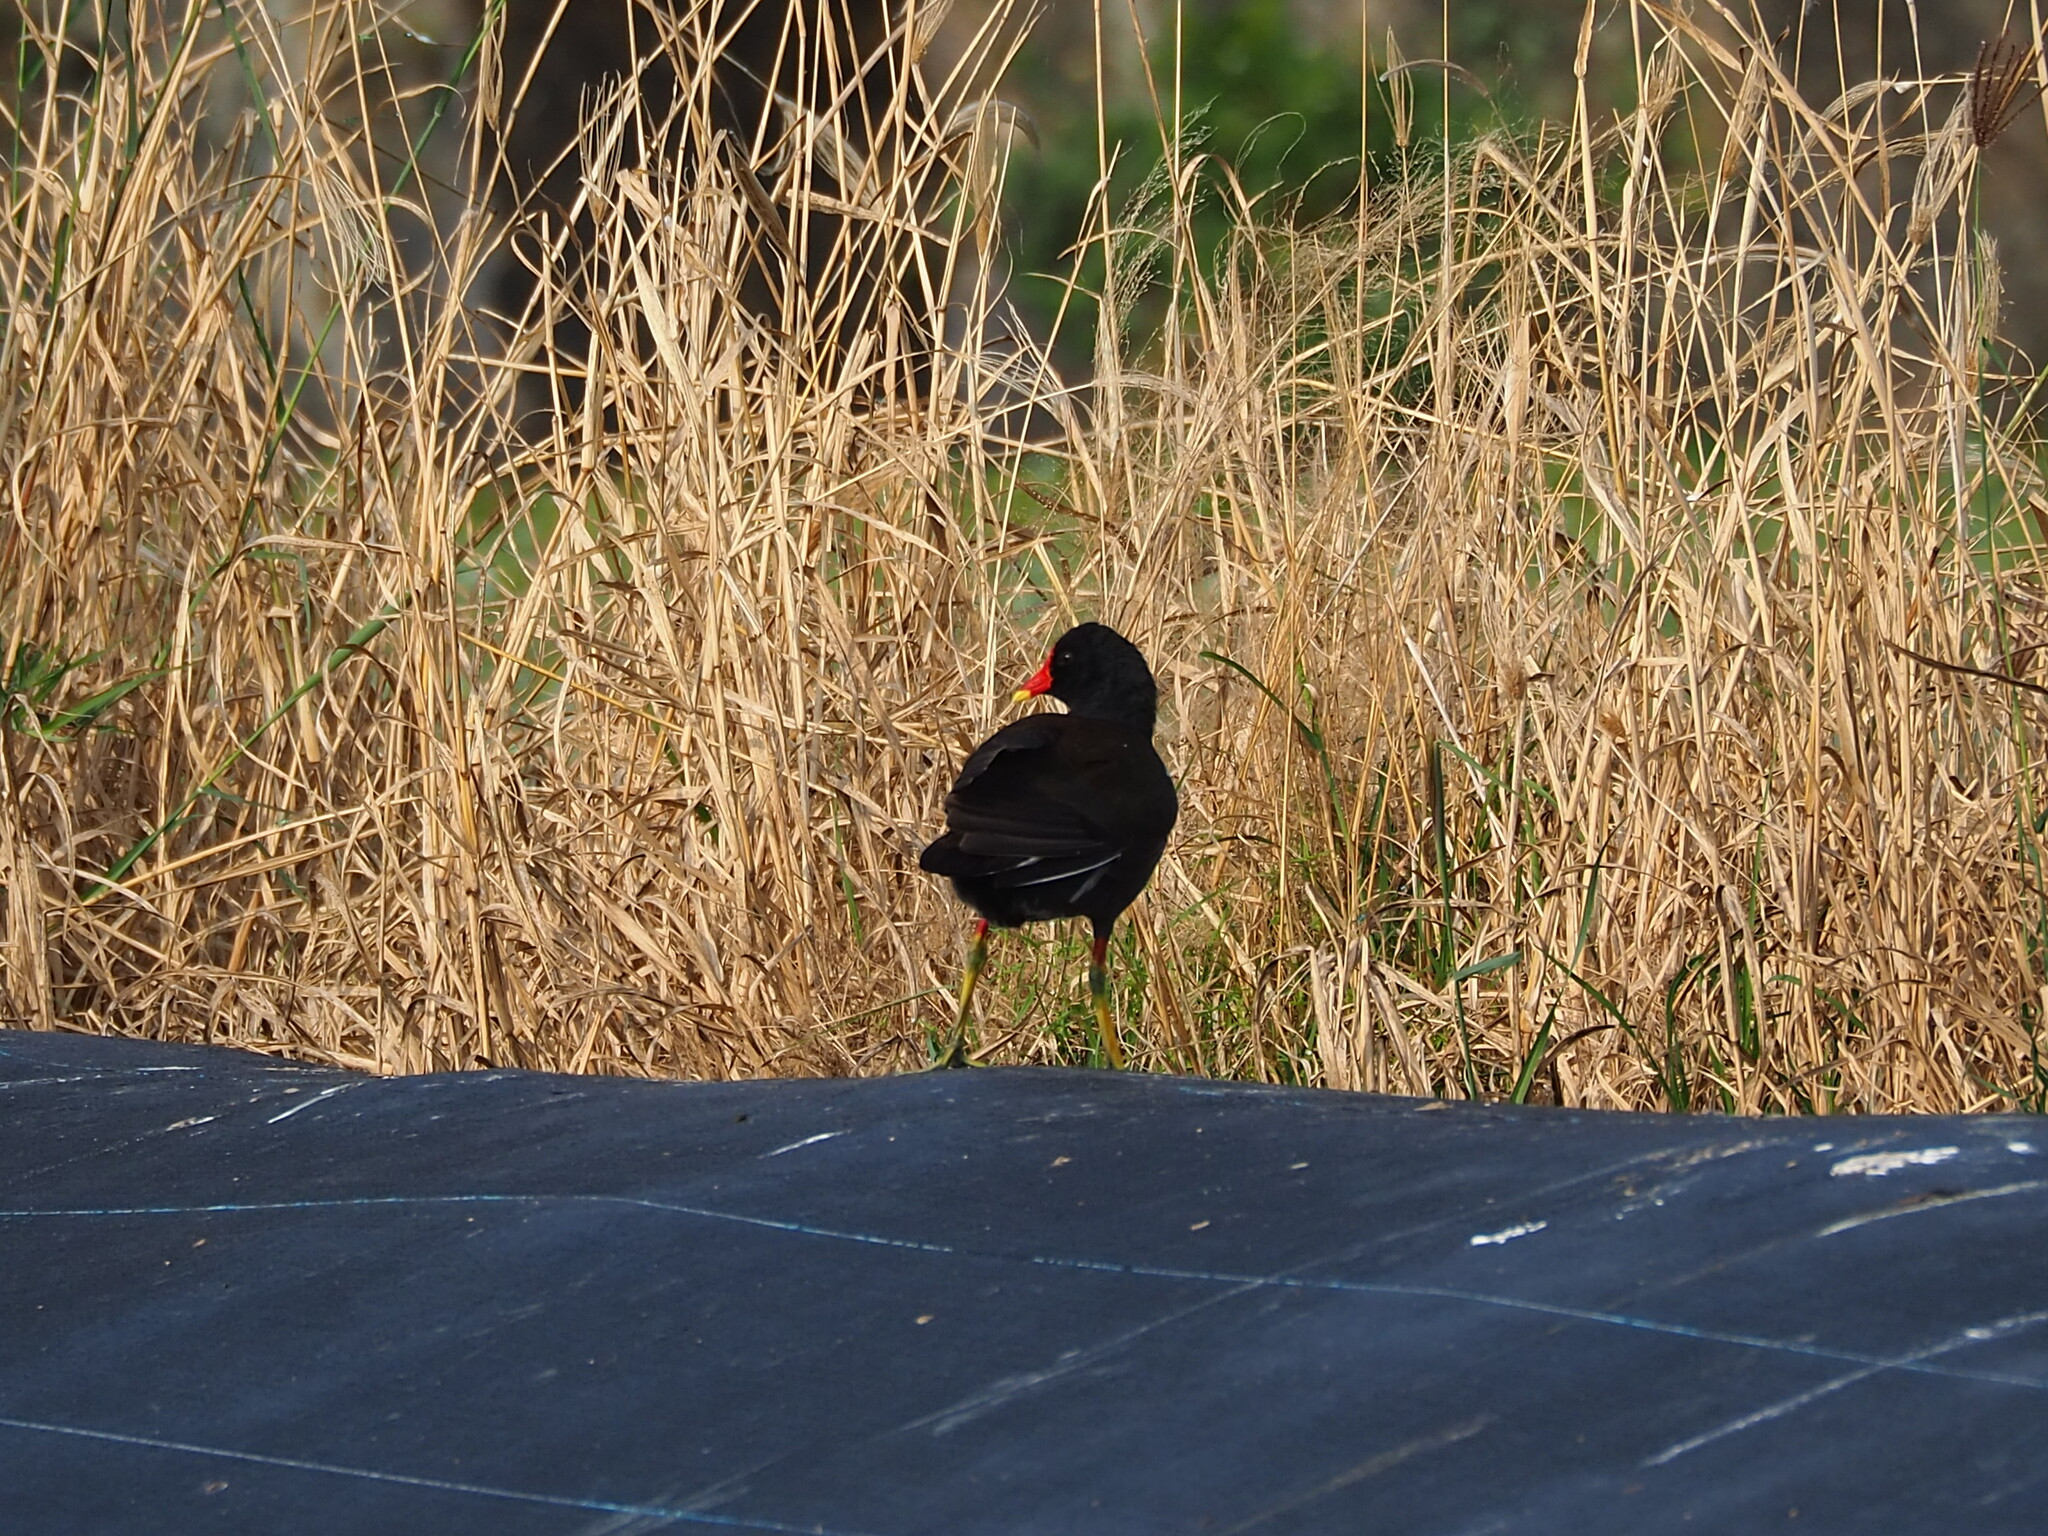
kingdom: Animalia
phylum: Chordata
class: Aves
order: Gruiformes
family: Rallidae
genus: Gallinula
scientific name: Gallinula chloropus
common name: Common moorhen
